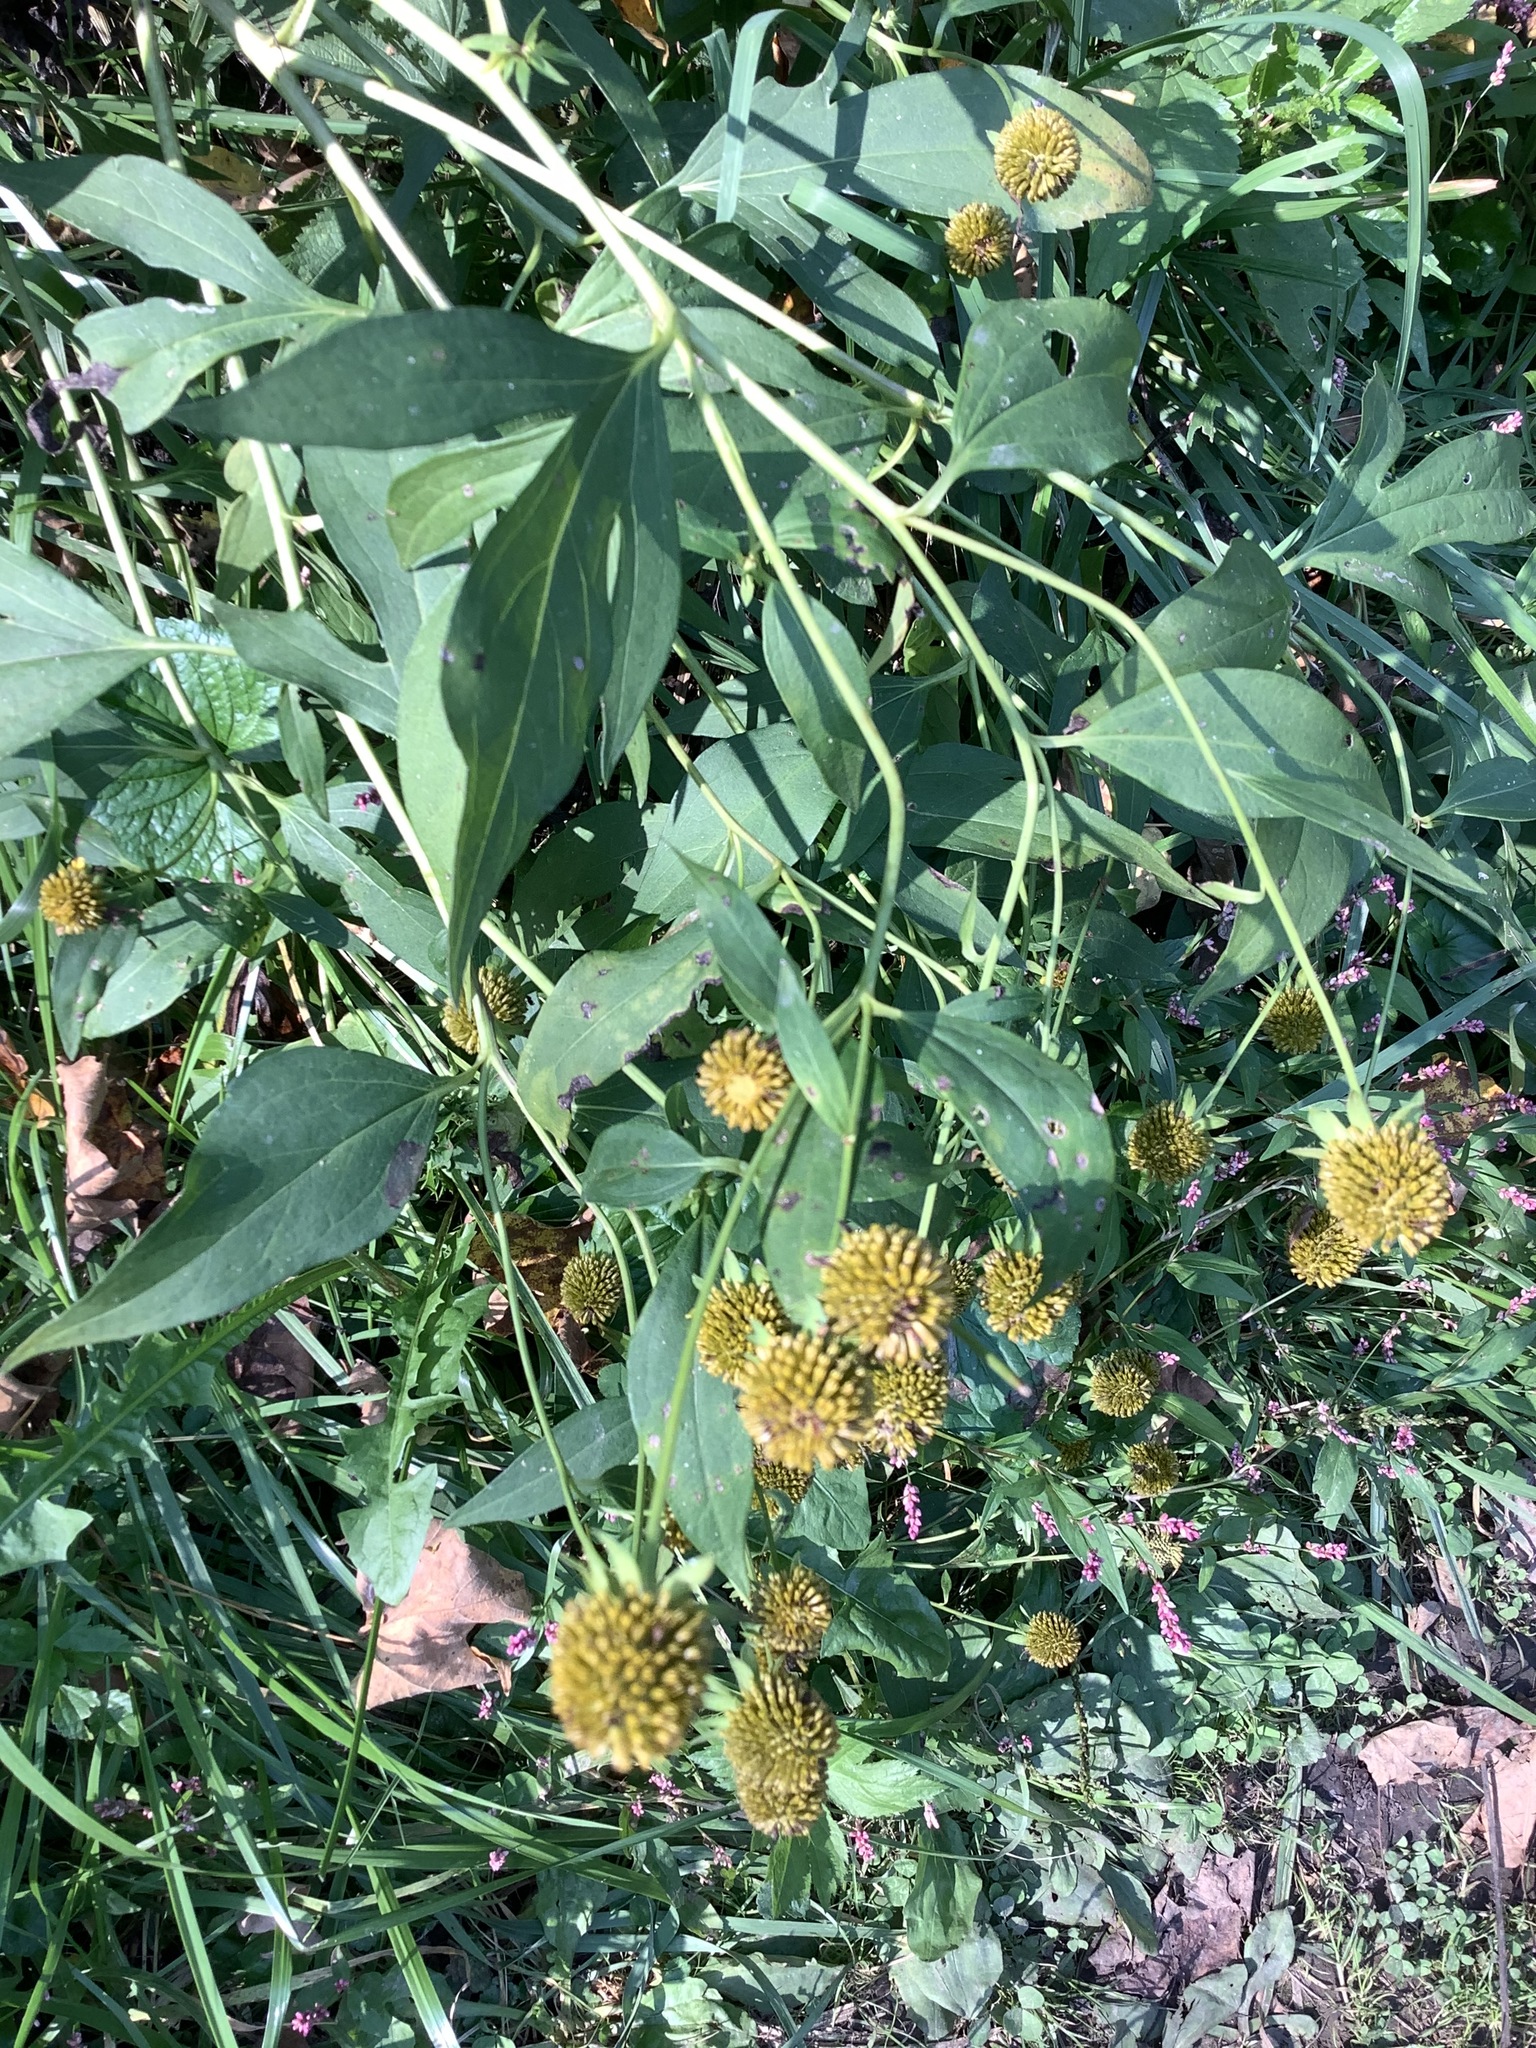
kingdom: Plantae
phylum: Tracheophyta
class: Magnoliopsida
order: Asterales
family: Asteraceae
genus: Rudbeckia
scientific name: Rudbeckia laciniata
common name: Coneflower
